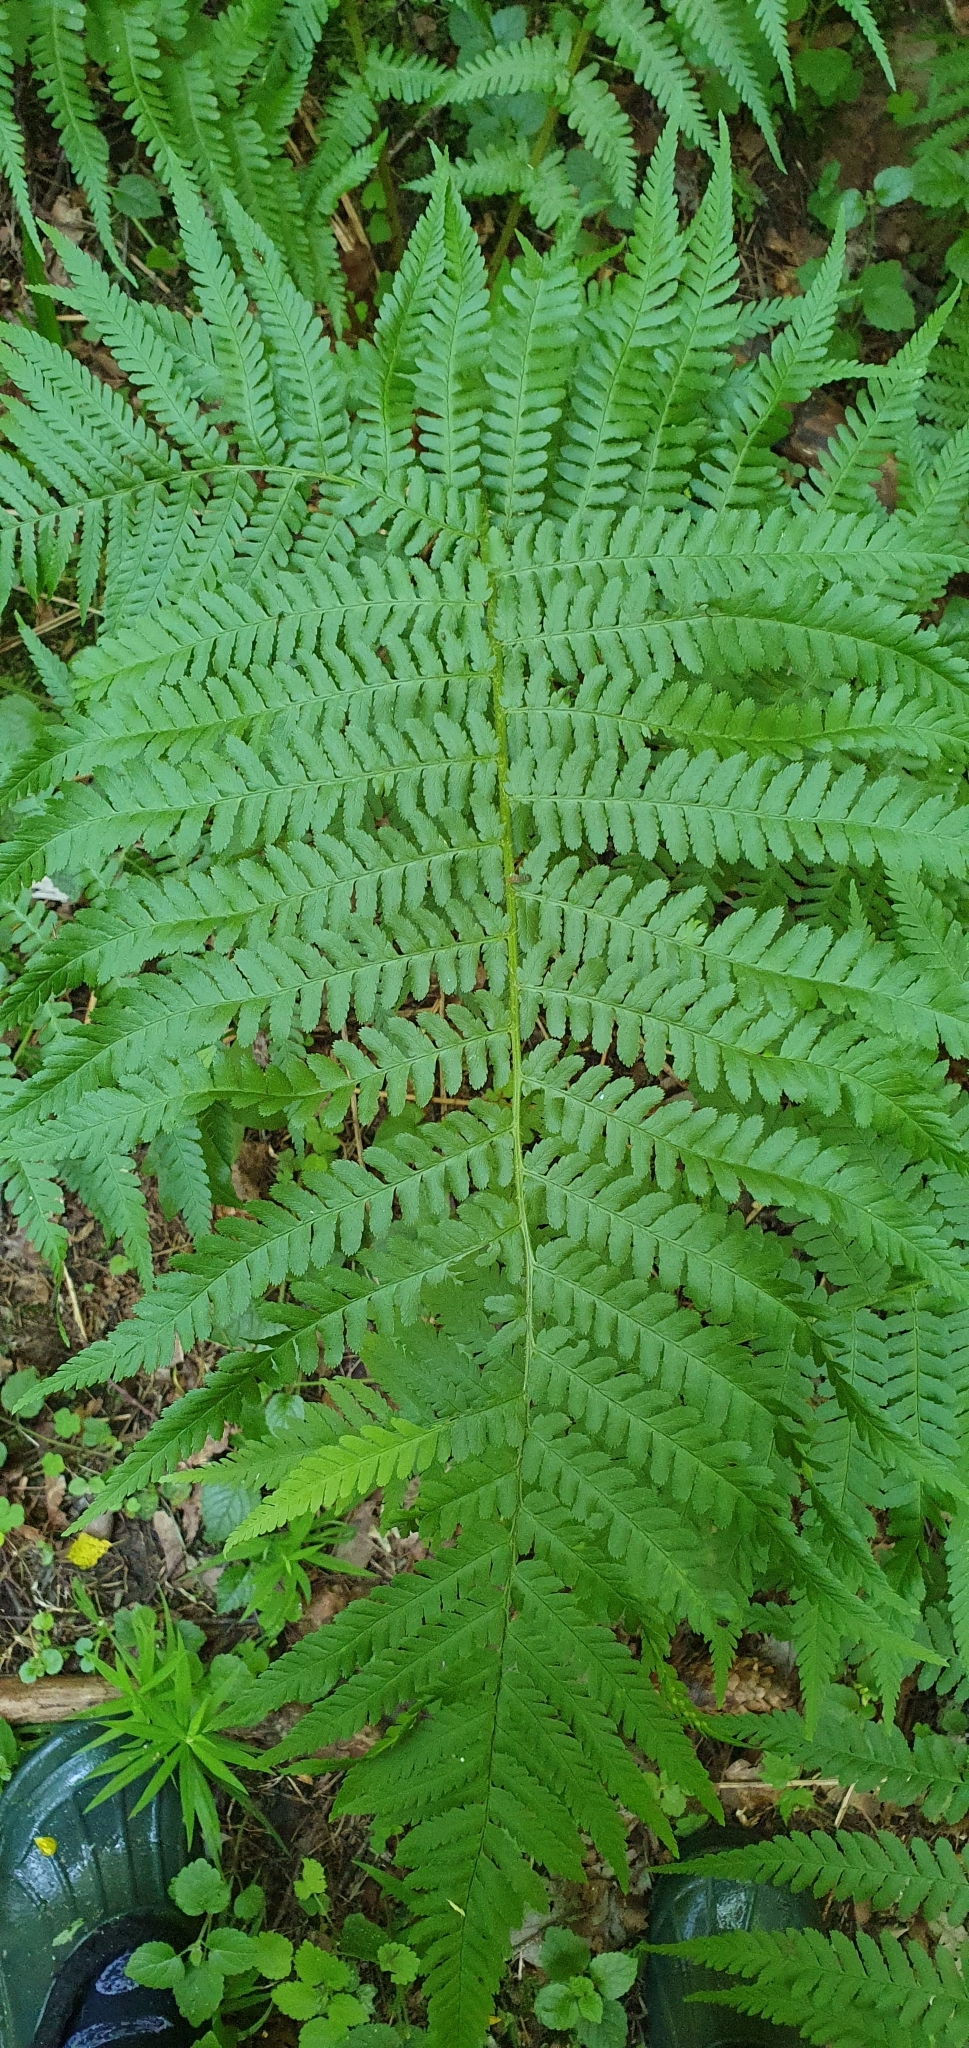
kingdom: Plantae
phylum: Tracheophyta
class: Polypodiopsida
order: Polypodiales
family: Dryopteridaceae
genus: Dryopteris
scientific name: Dryopteris filix-mas
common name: Male fern
